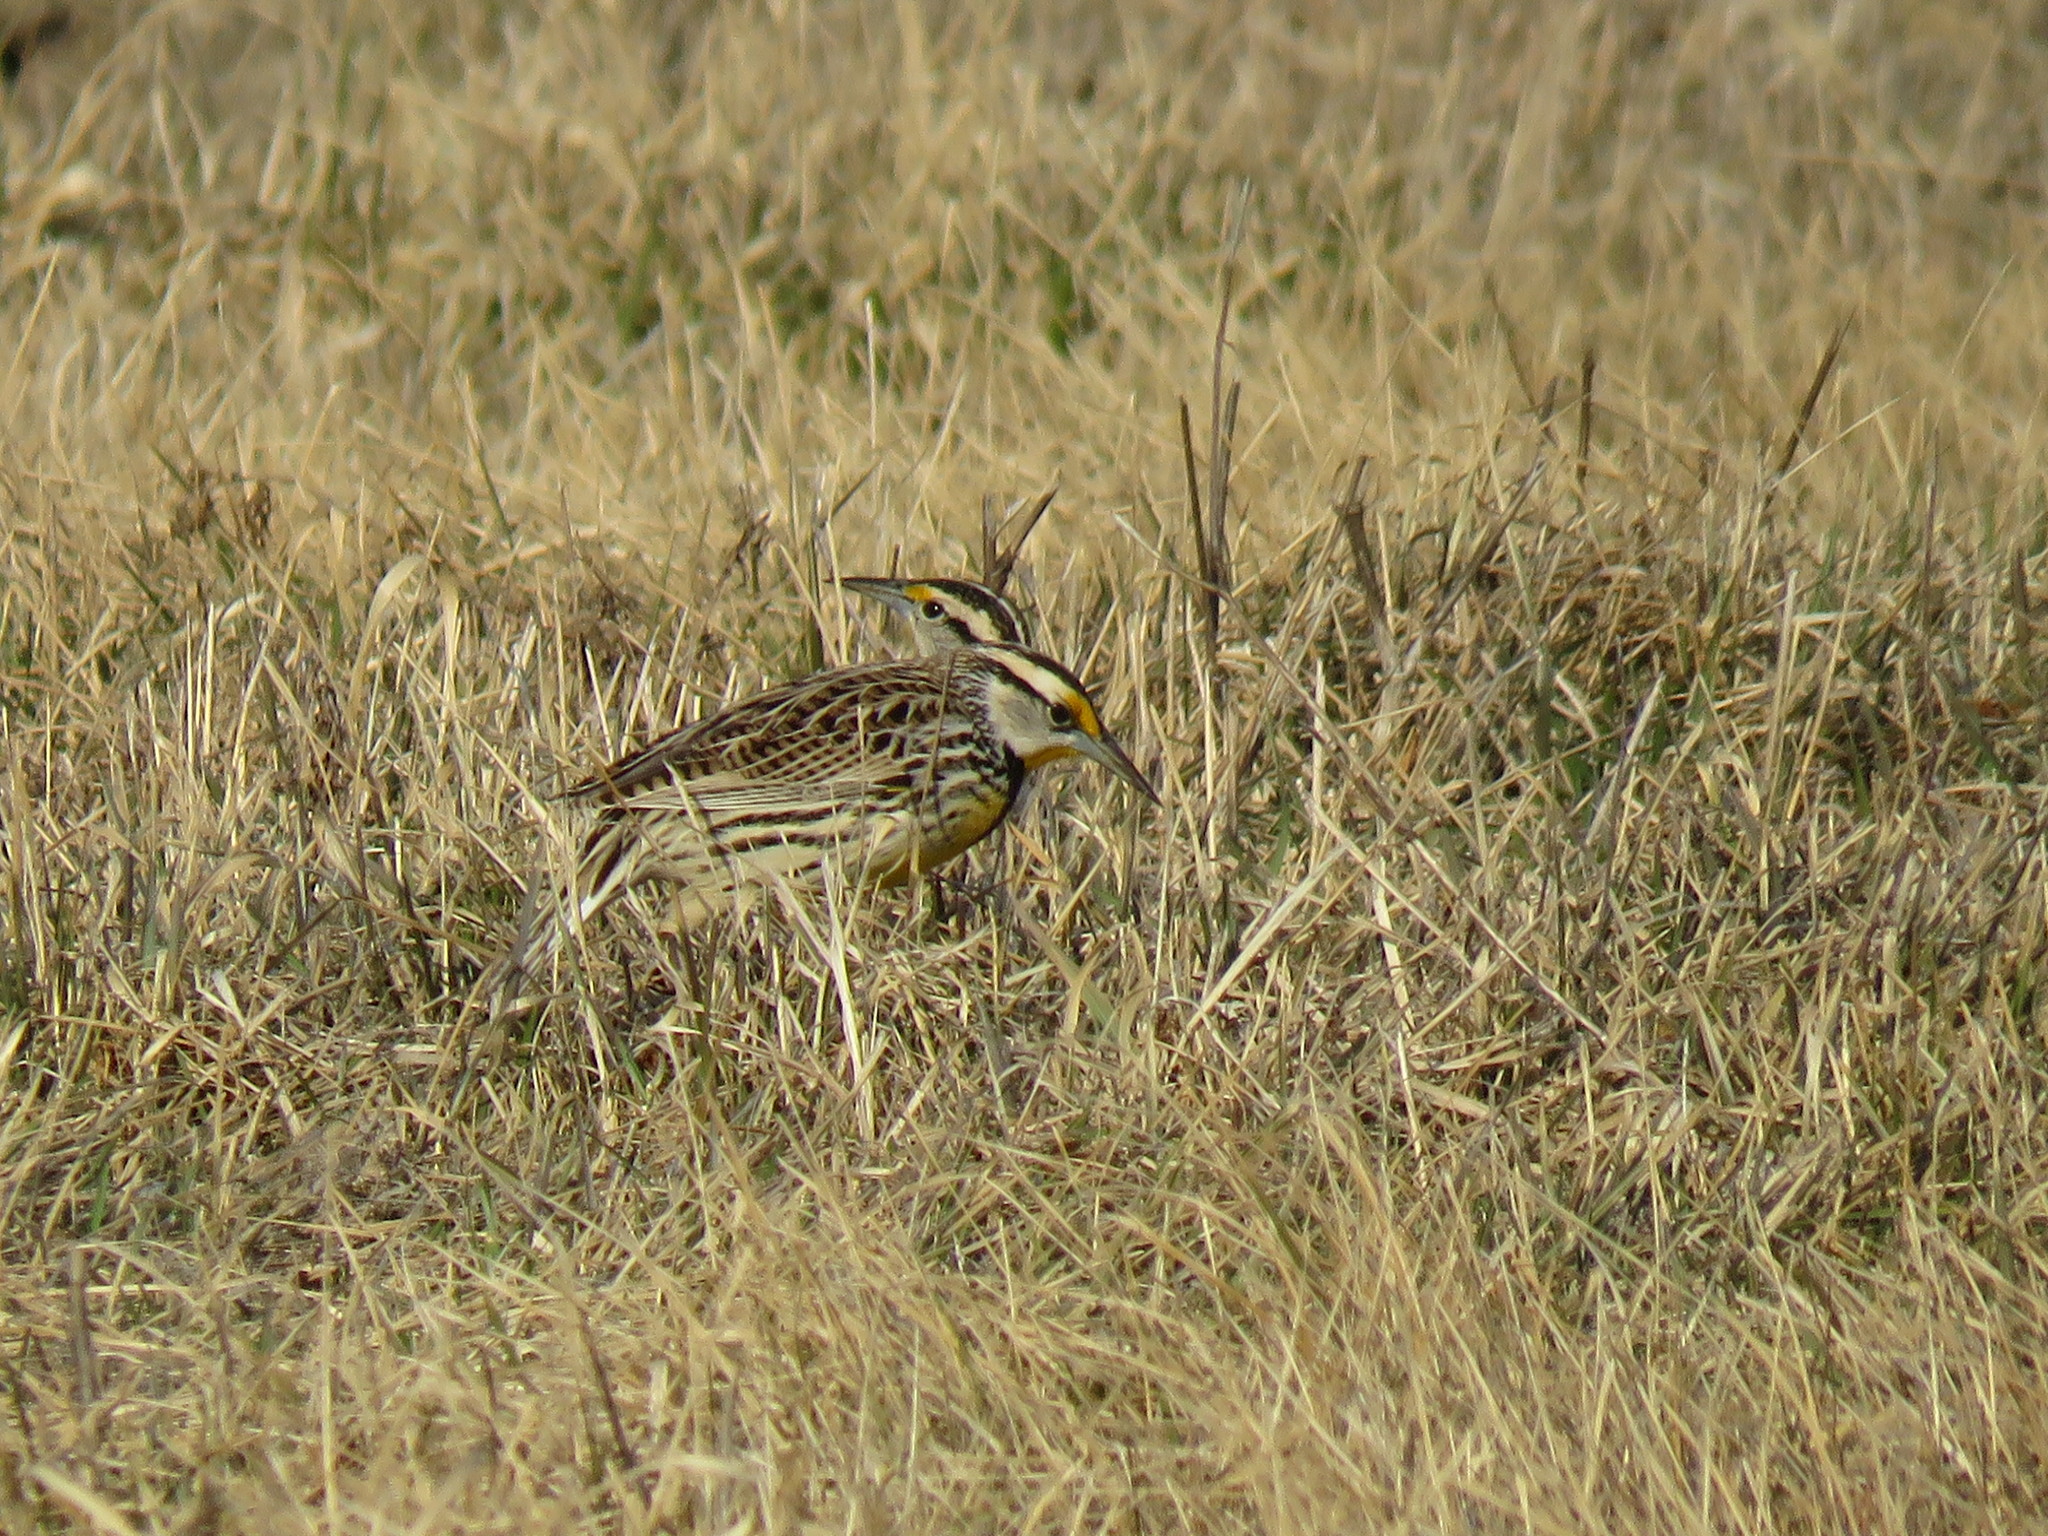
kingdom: Animalia
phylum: Chordata
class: Aves
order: Passeriformes
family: Icteridae
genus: Sturnella
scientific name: Sturnella magna
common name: Eastern meadowlark
